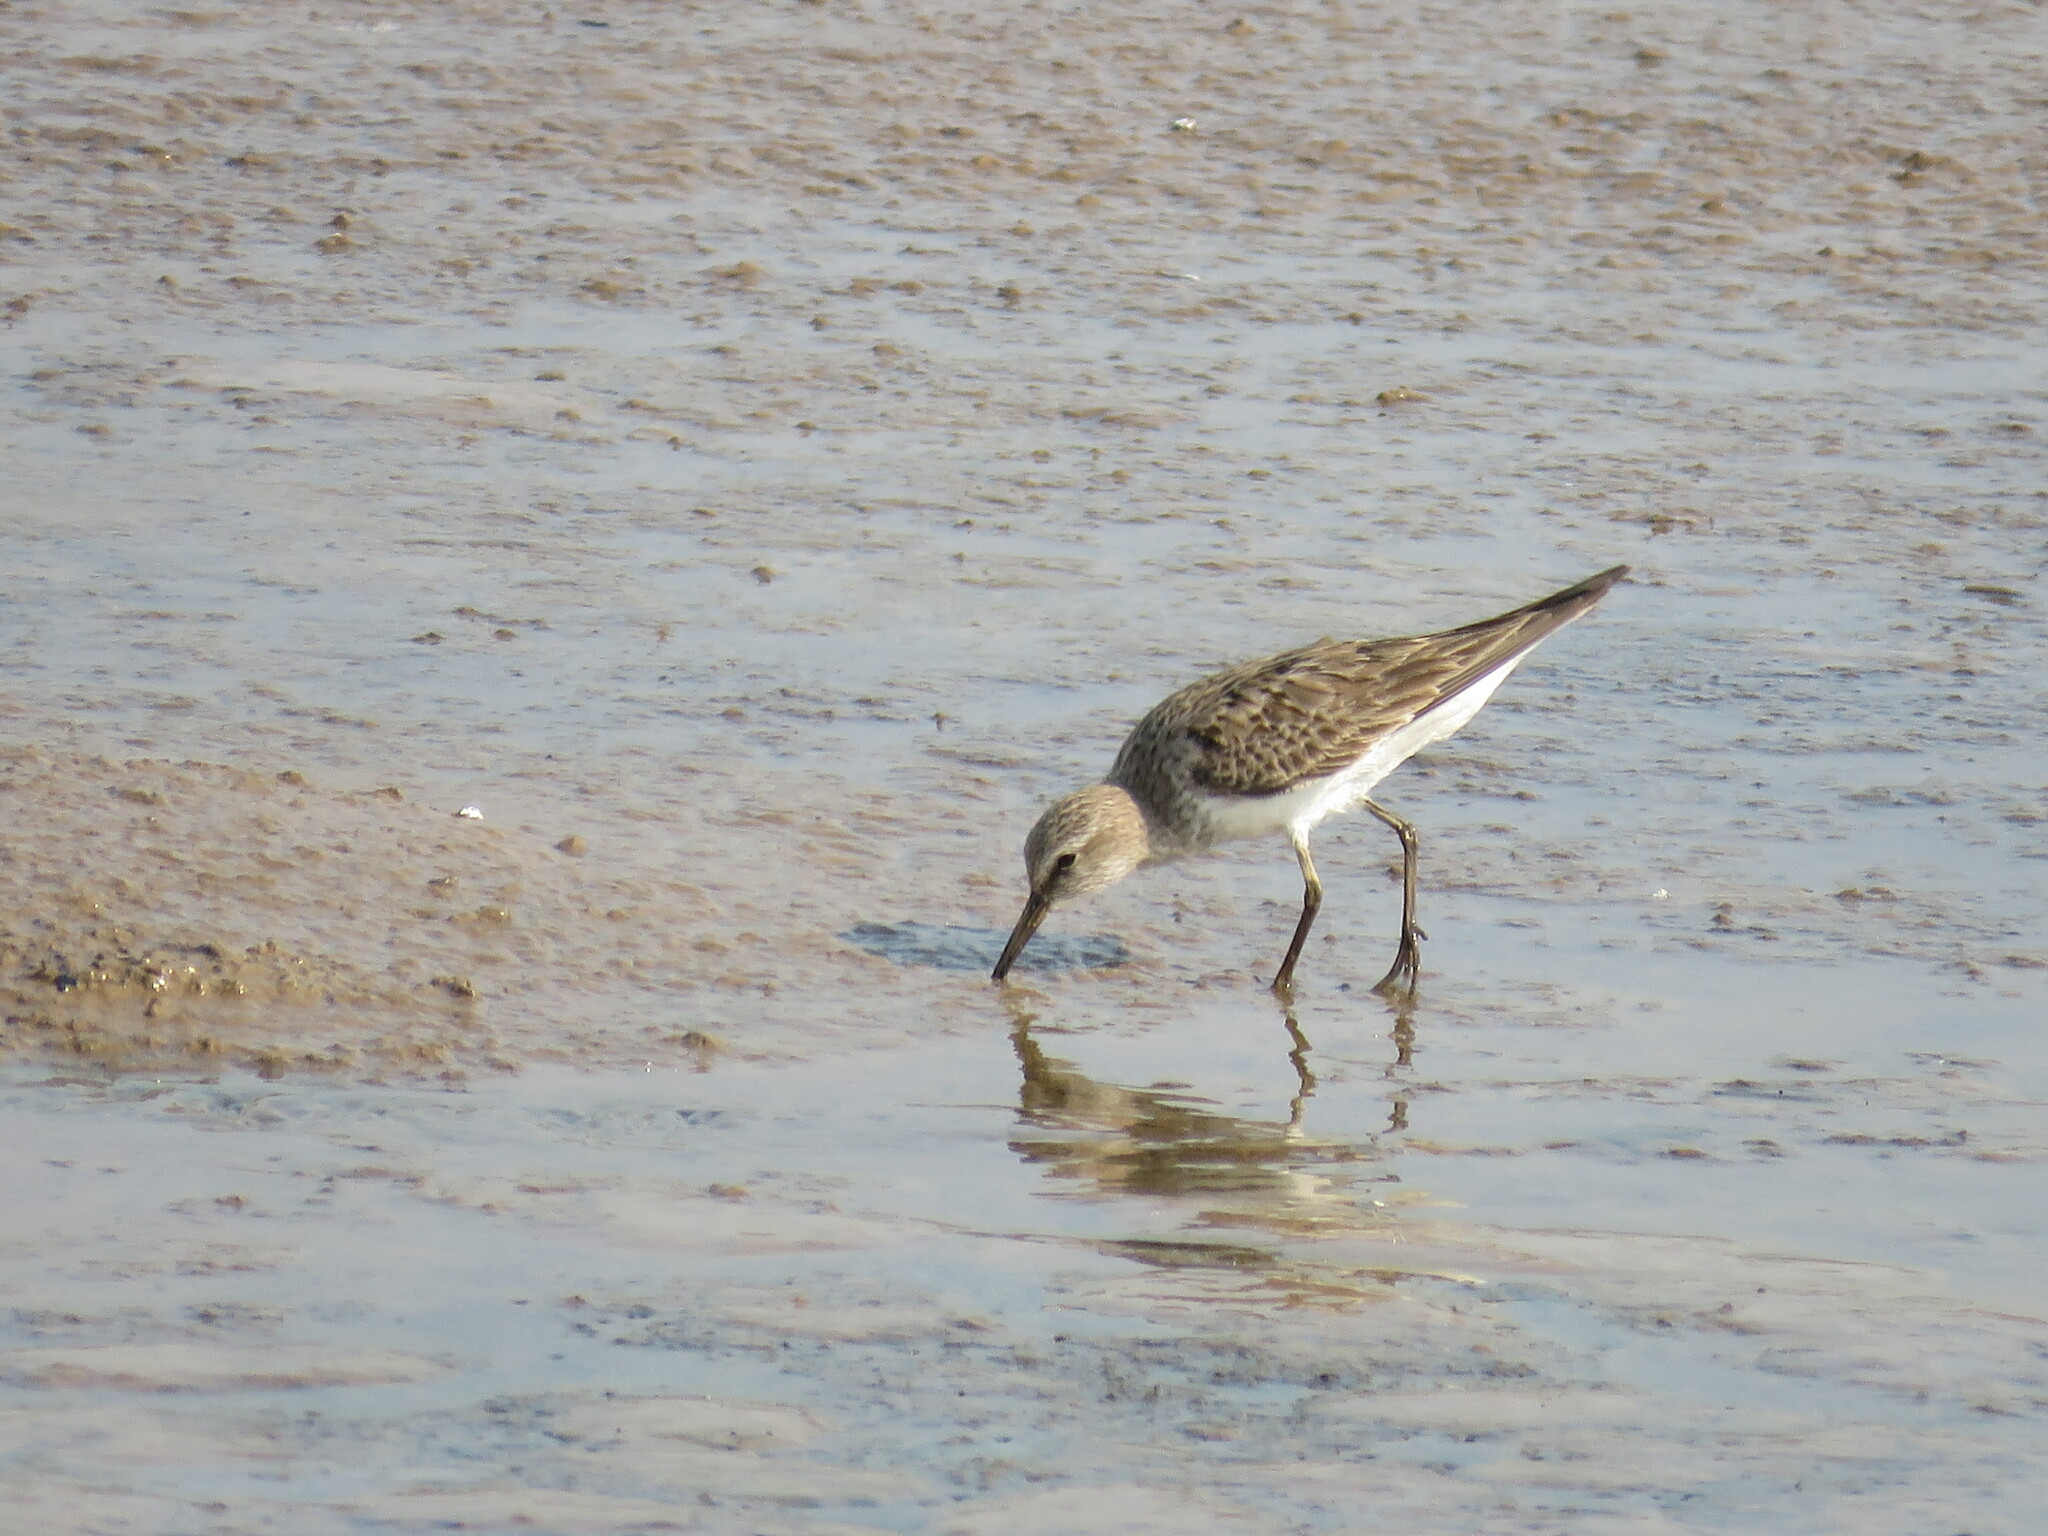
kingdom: Animalia
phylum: Chordata
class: Aves
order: Charadriiformes
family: Scolopacidae
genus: Calidris
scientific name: Calidris fuscicollis
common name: White-rumped sandpiper
